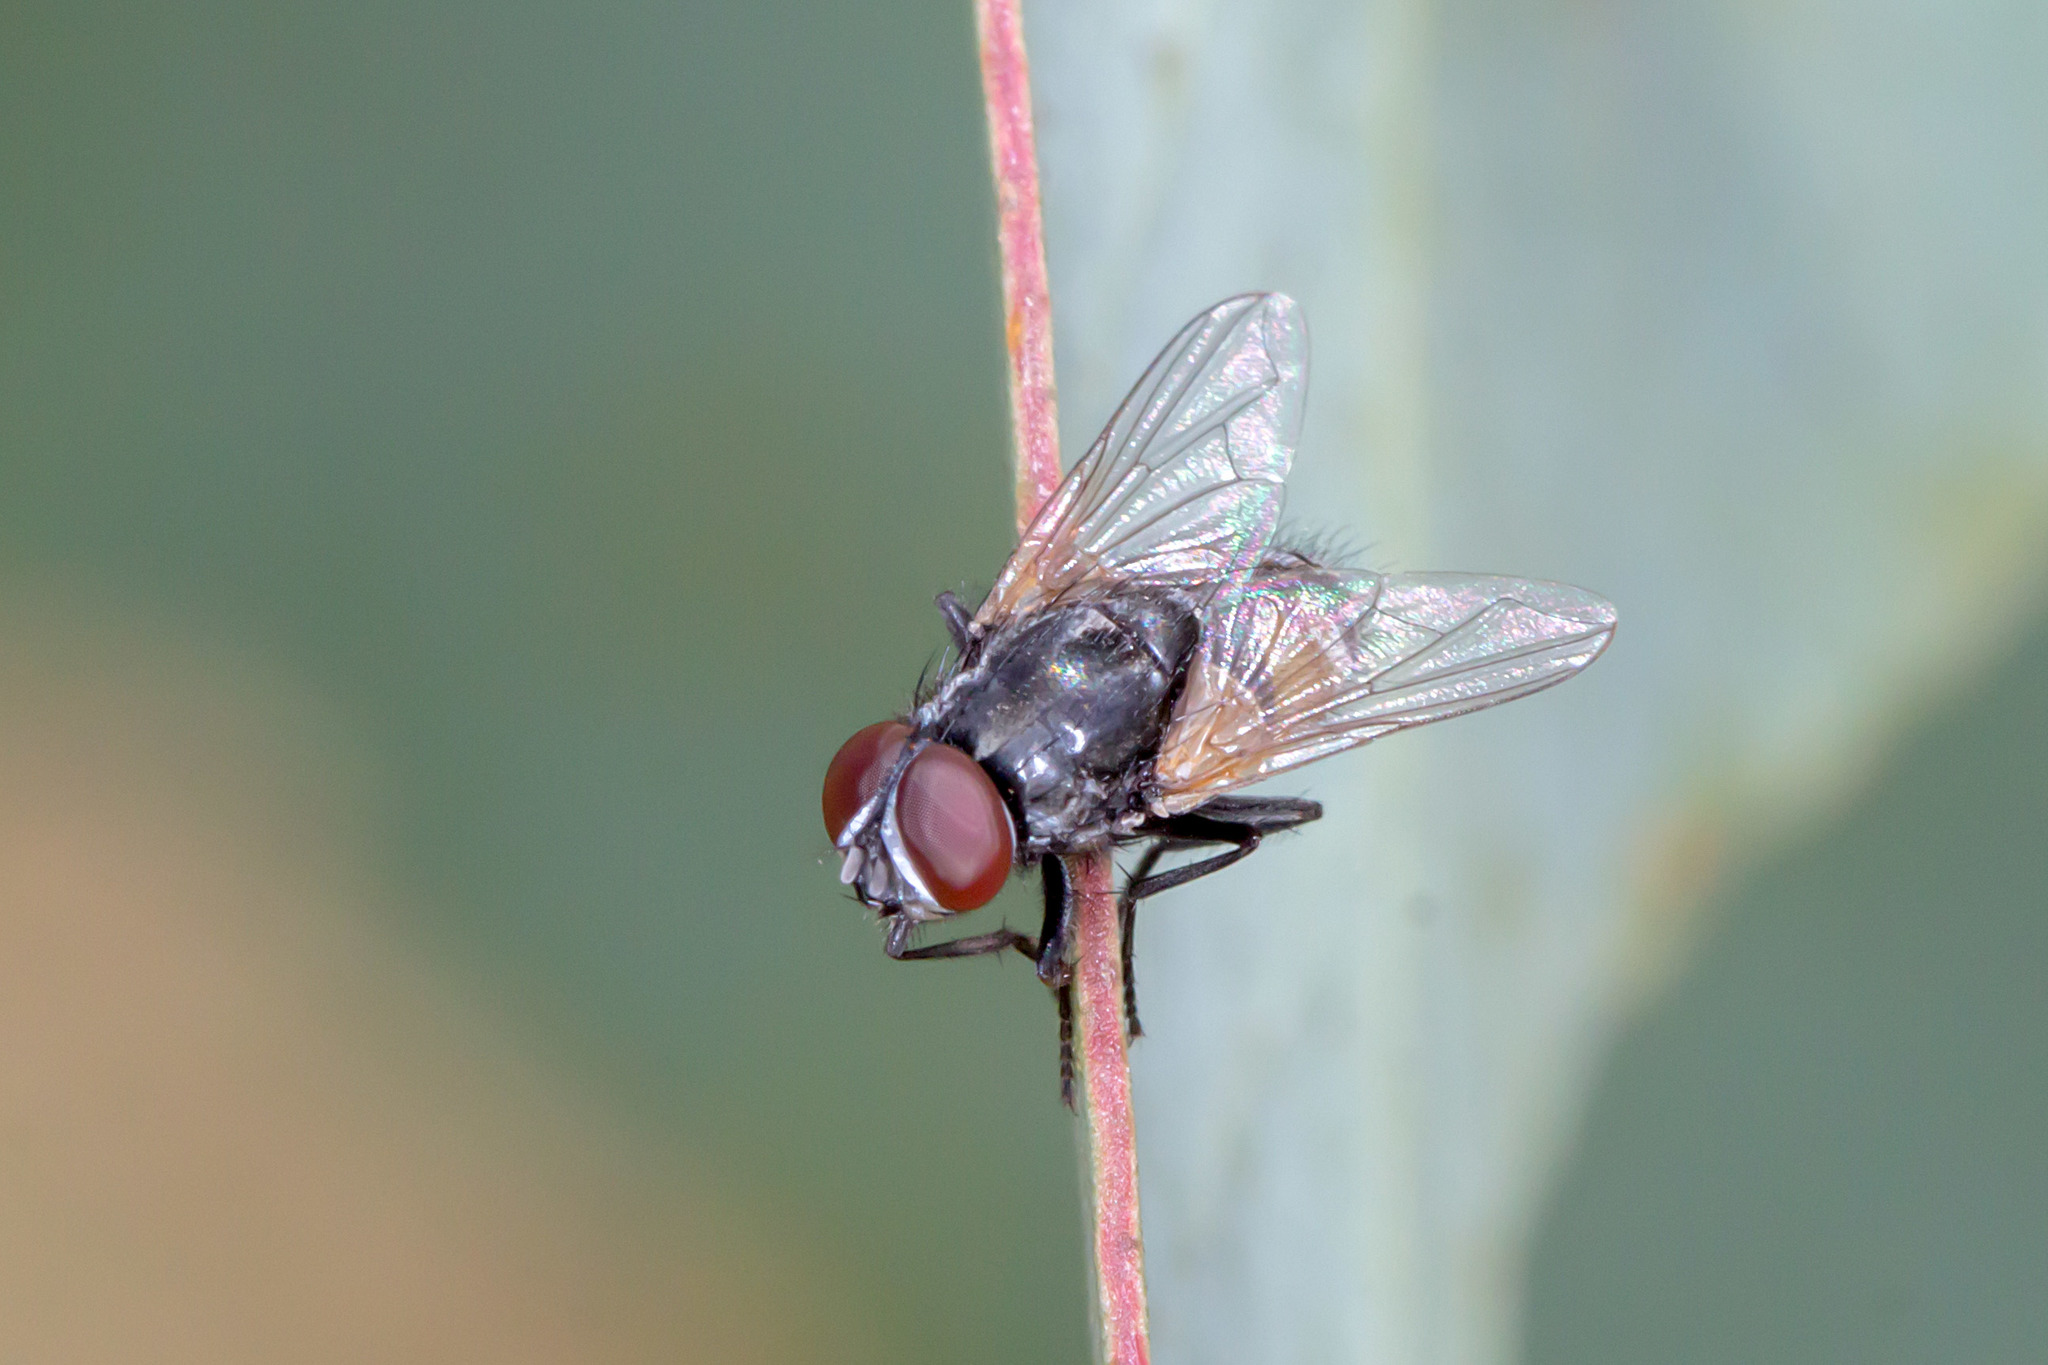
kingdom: Animalia
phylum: Arthropoda
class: Insecta
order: Diptera
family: Muscidae
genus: Musca
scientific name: Musca vetustissima
